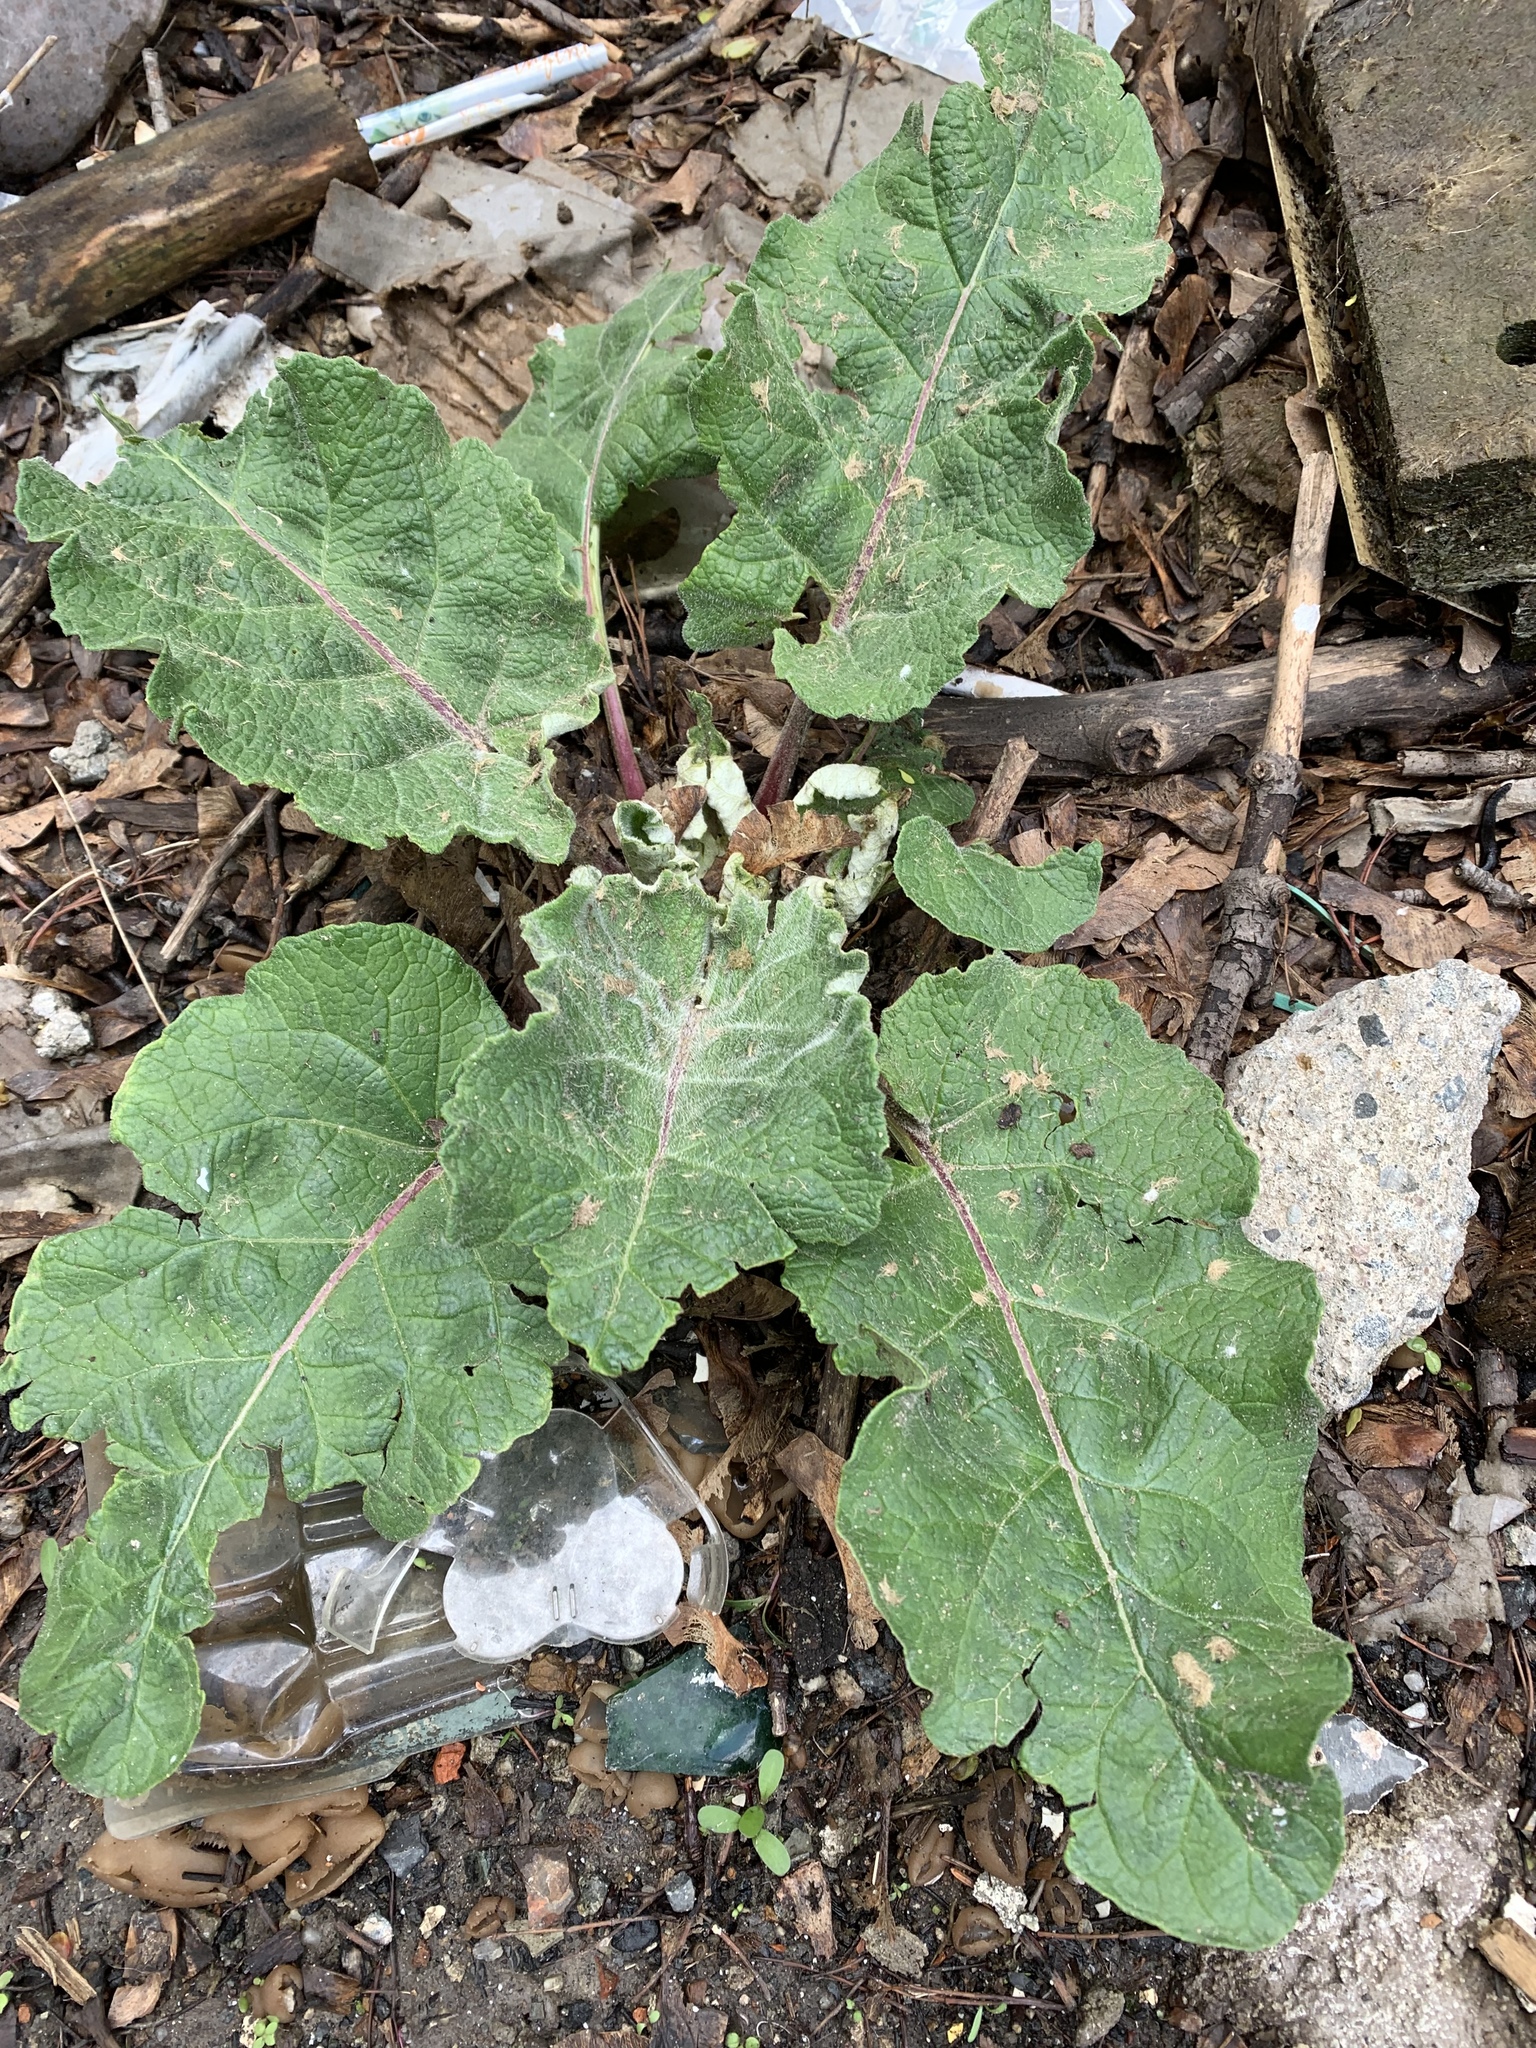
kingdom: Plantae
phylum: Tracheophyta
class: Magnoliopsida
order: Asterales
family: Asteraceae
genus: Arctium
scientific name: Arctium
